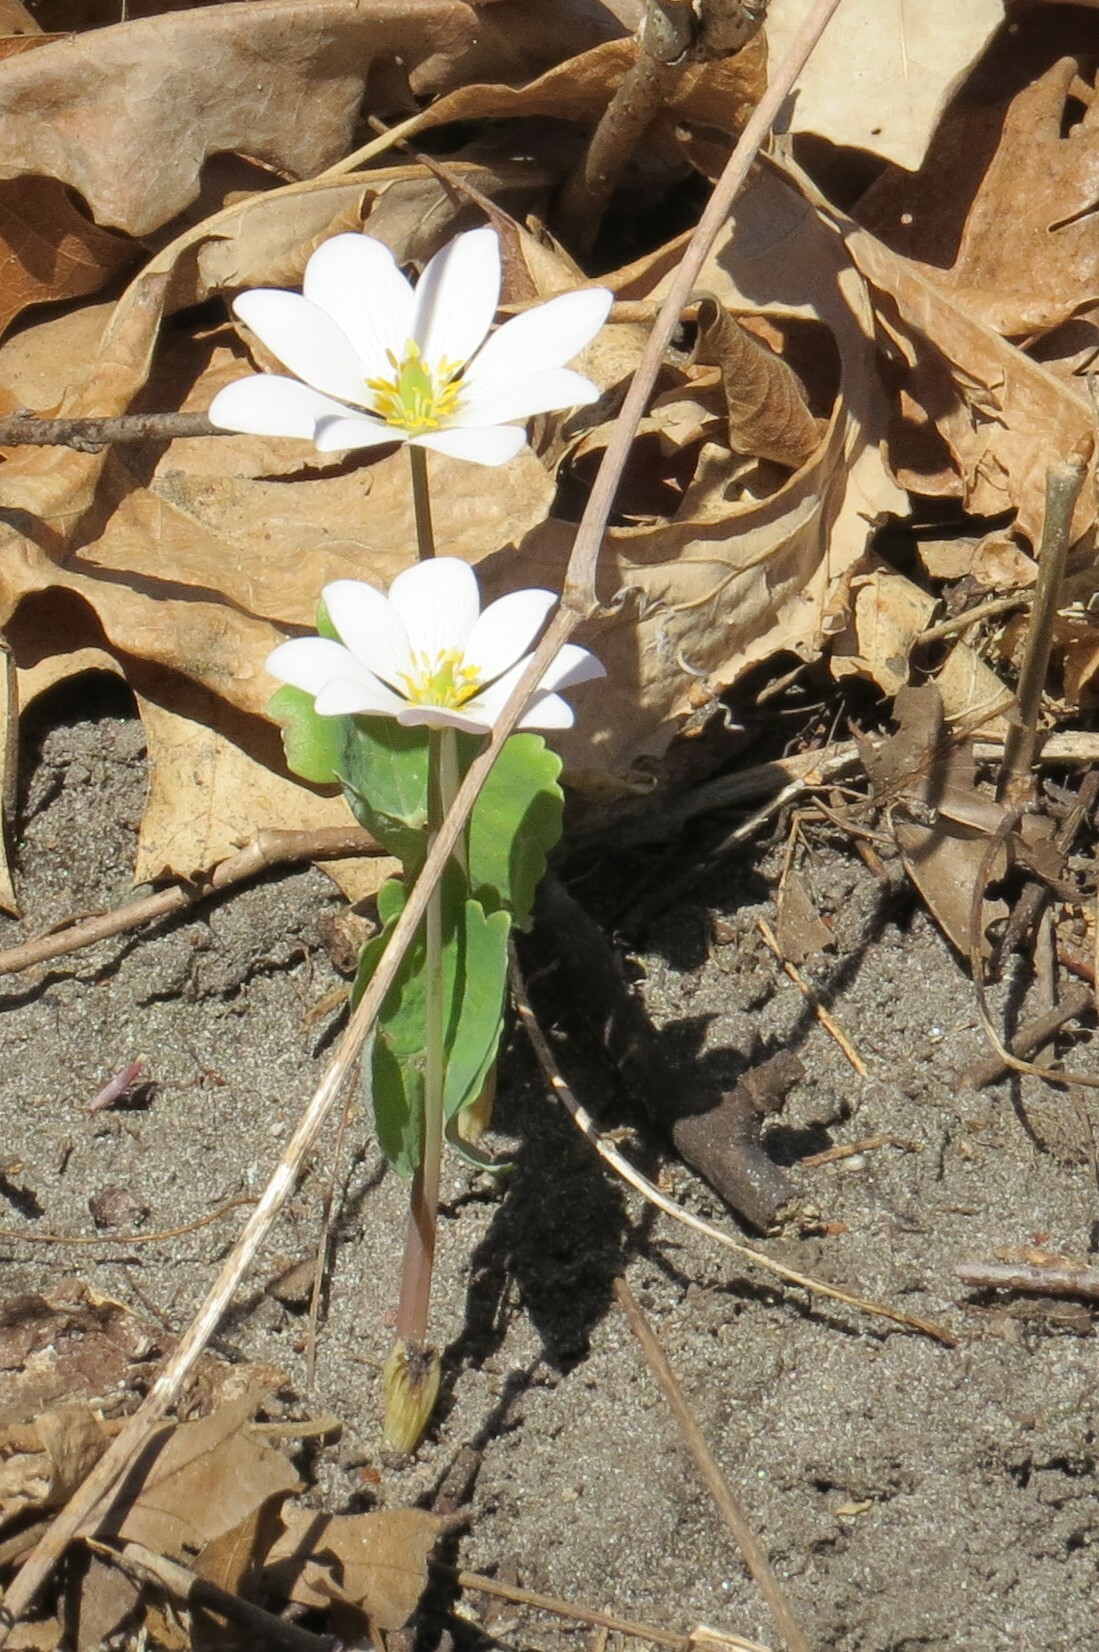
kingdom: Plantae
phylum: Tracheophyta
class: Magnoliopsida
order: Ranunculales
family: Papaveraceae
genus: Sanguinaria
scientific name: Sanguinaria canadensis
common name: Bloodroot
